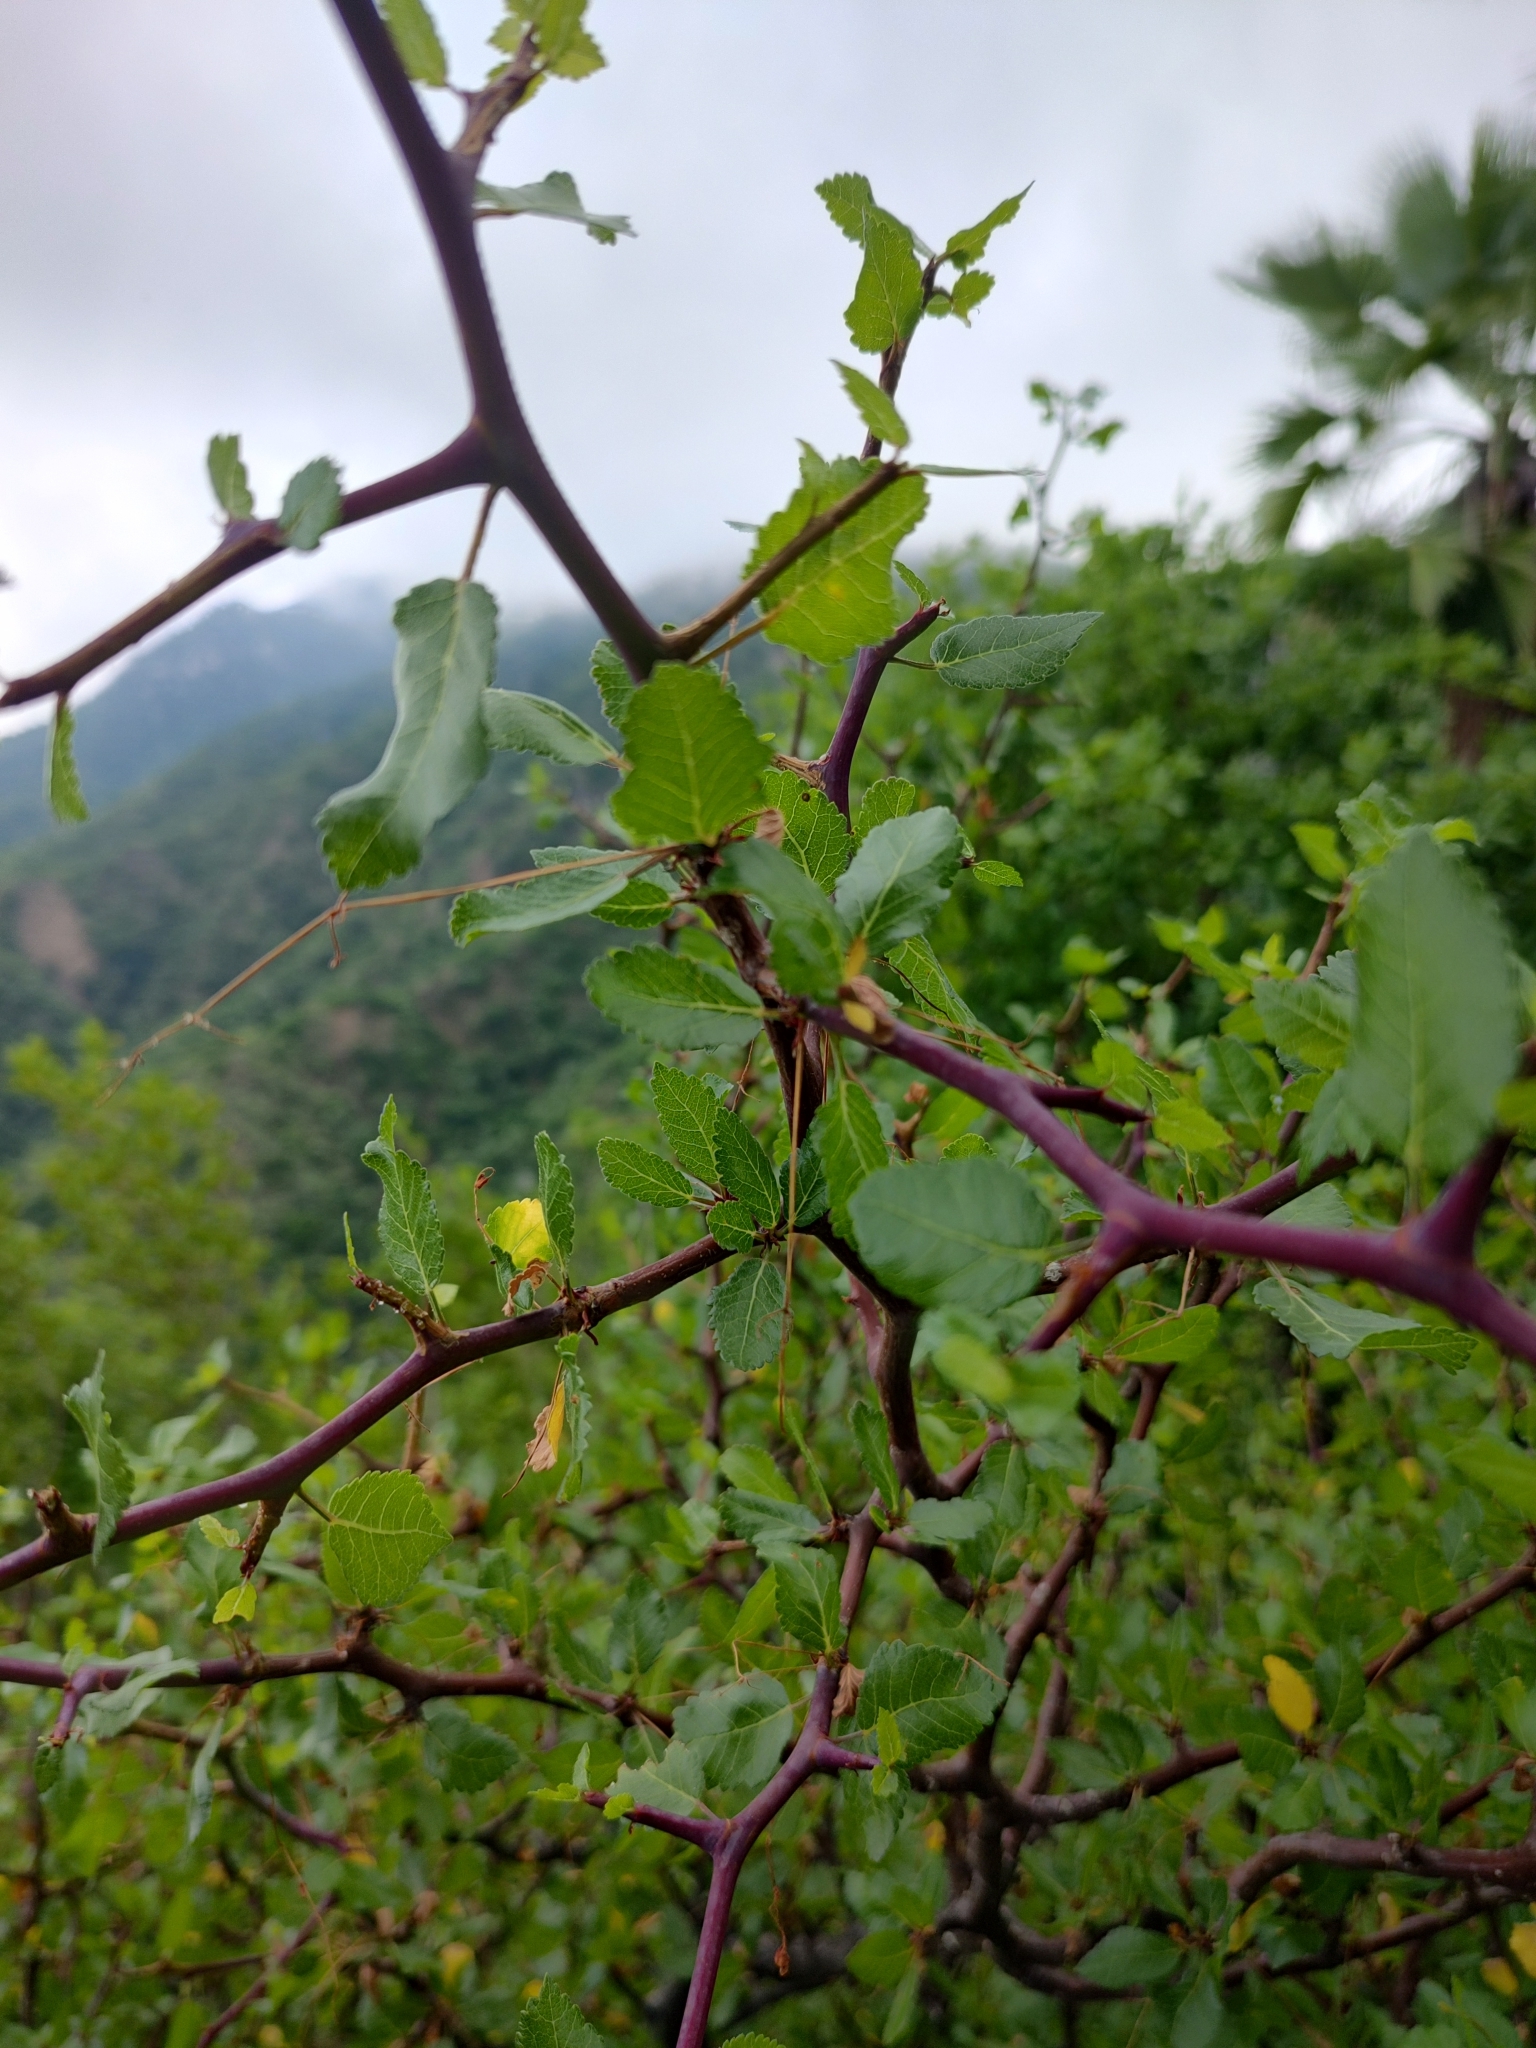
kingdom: Plantae
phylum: Tracheophyta
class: Magnoliopsida
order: Sapindales
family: Burseraceae
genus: Bursera
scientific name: Bursera epinnata
